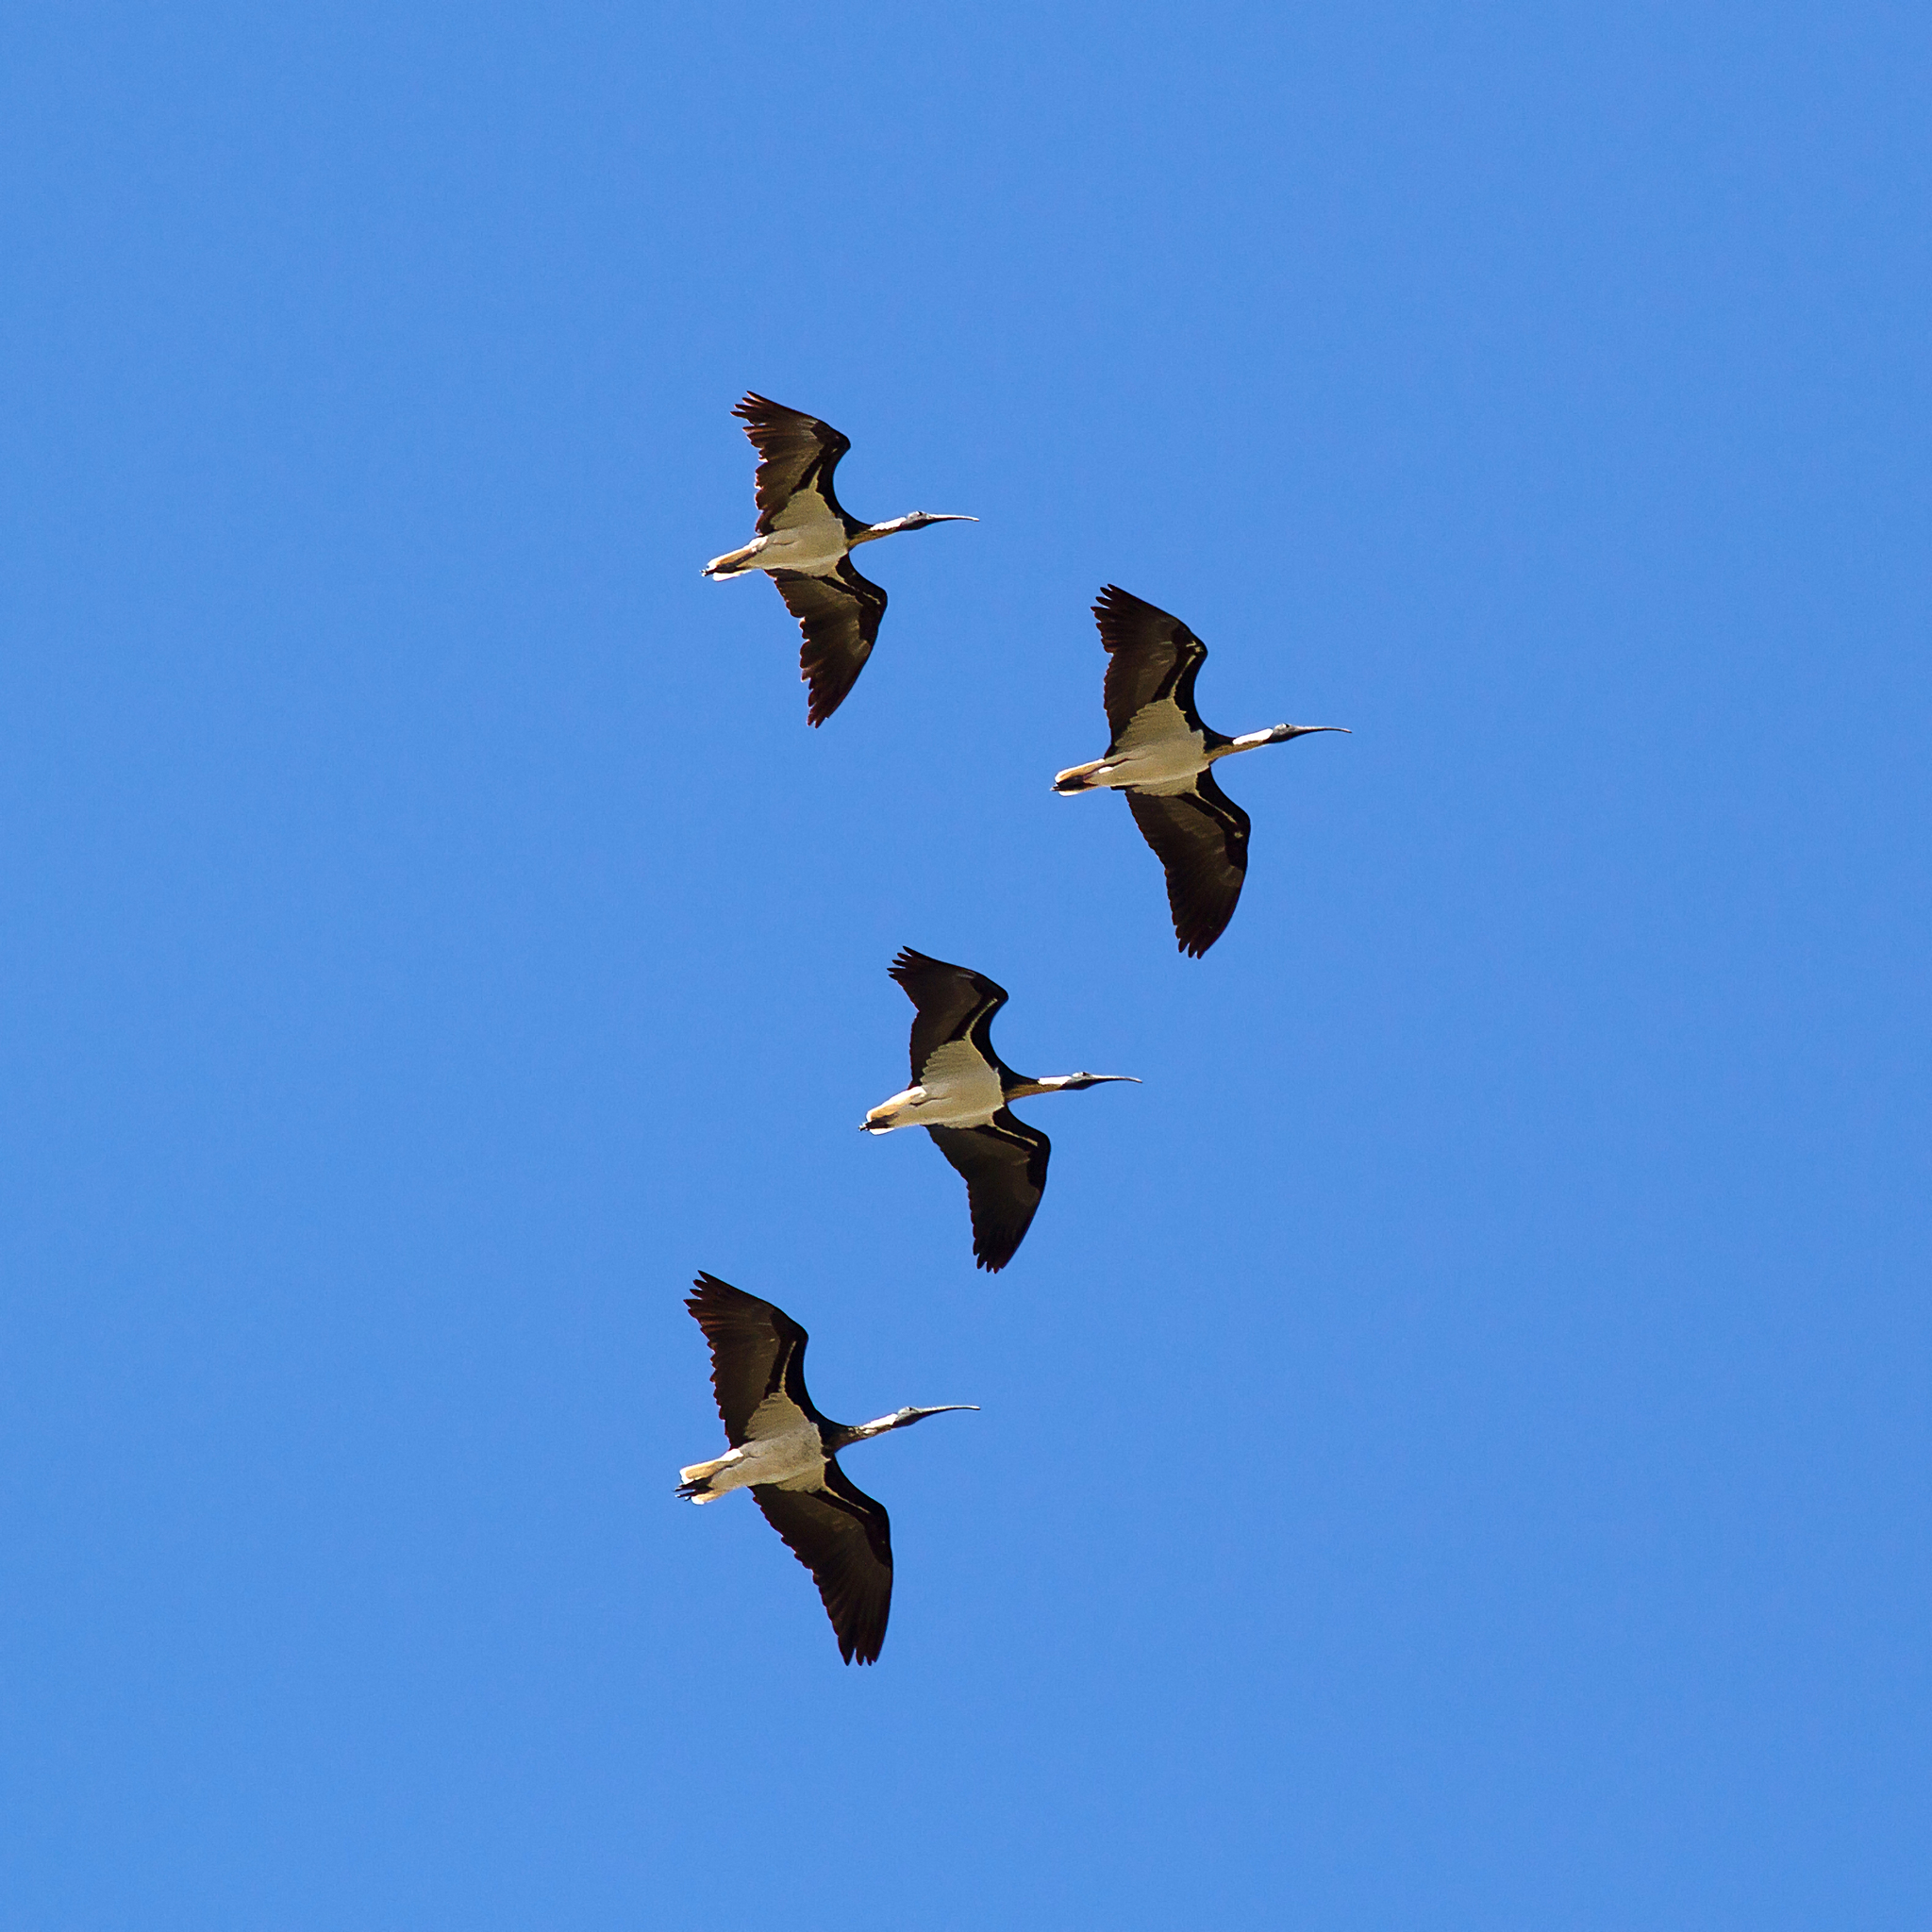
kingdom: Animalia
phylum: Chordata
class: Aves
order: Pelecaniformes
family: Threskiornithidae
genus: Threskiornis
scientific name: Threskiornis spinicollis
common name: Straw-necked ibis
